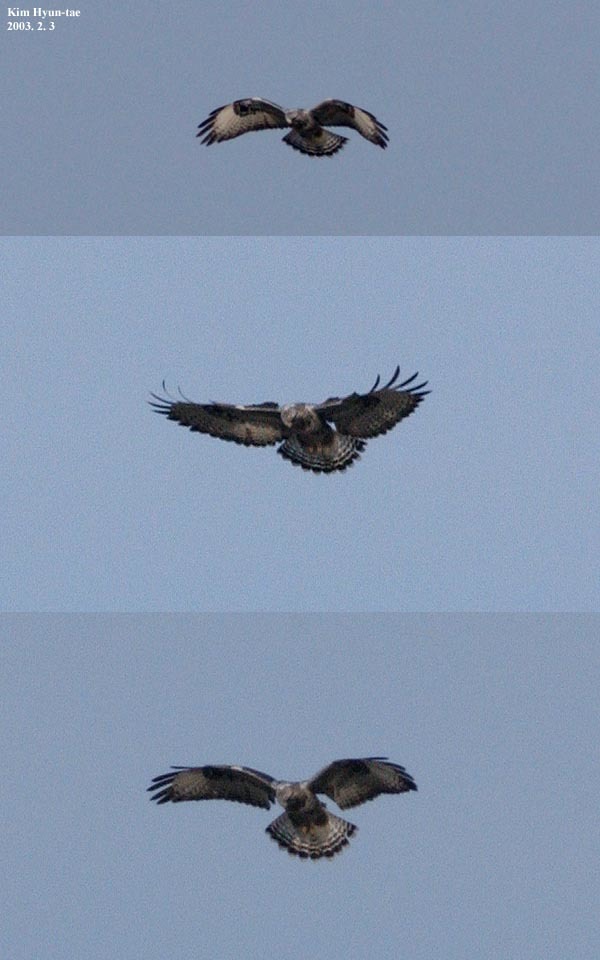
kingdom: Animalia
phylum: Chordata
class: Aves
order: Accipitriformes
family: Accipitridae
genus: Buteo
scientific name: Buteo lagopus
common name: Rough-legged buzzard
